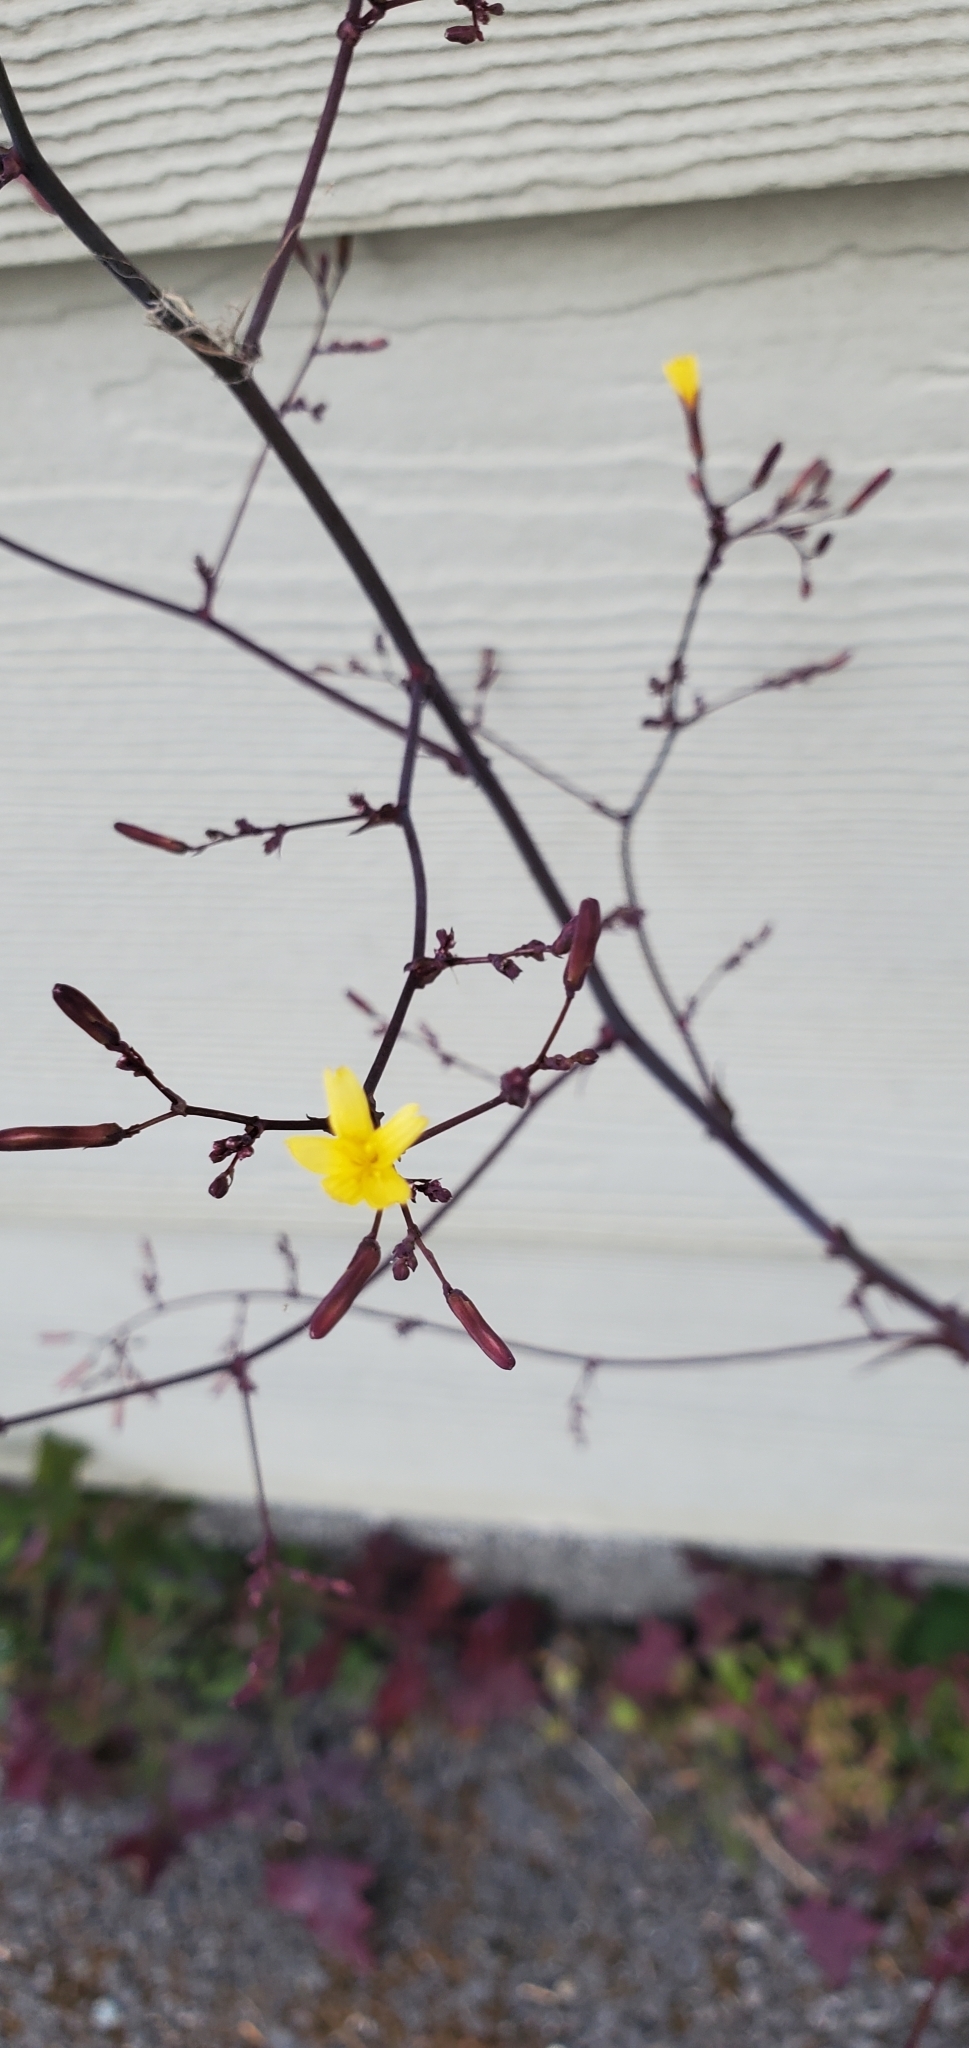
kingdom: Plantae
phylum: Tracheophyta
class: Magnoliopsida
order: Asterales
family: Asteraceae
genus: Mycelis
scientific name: Mycelis muralis
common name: Wall lettuce
